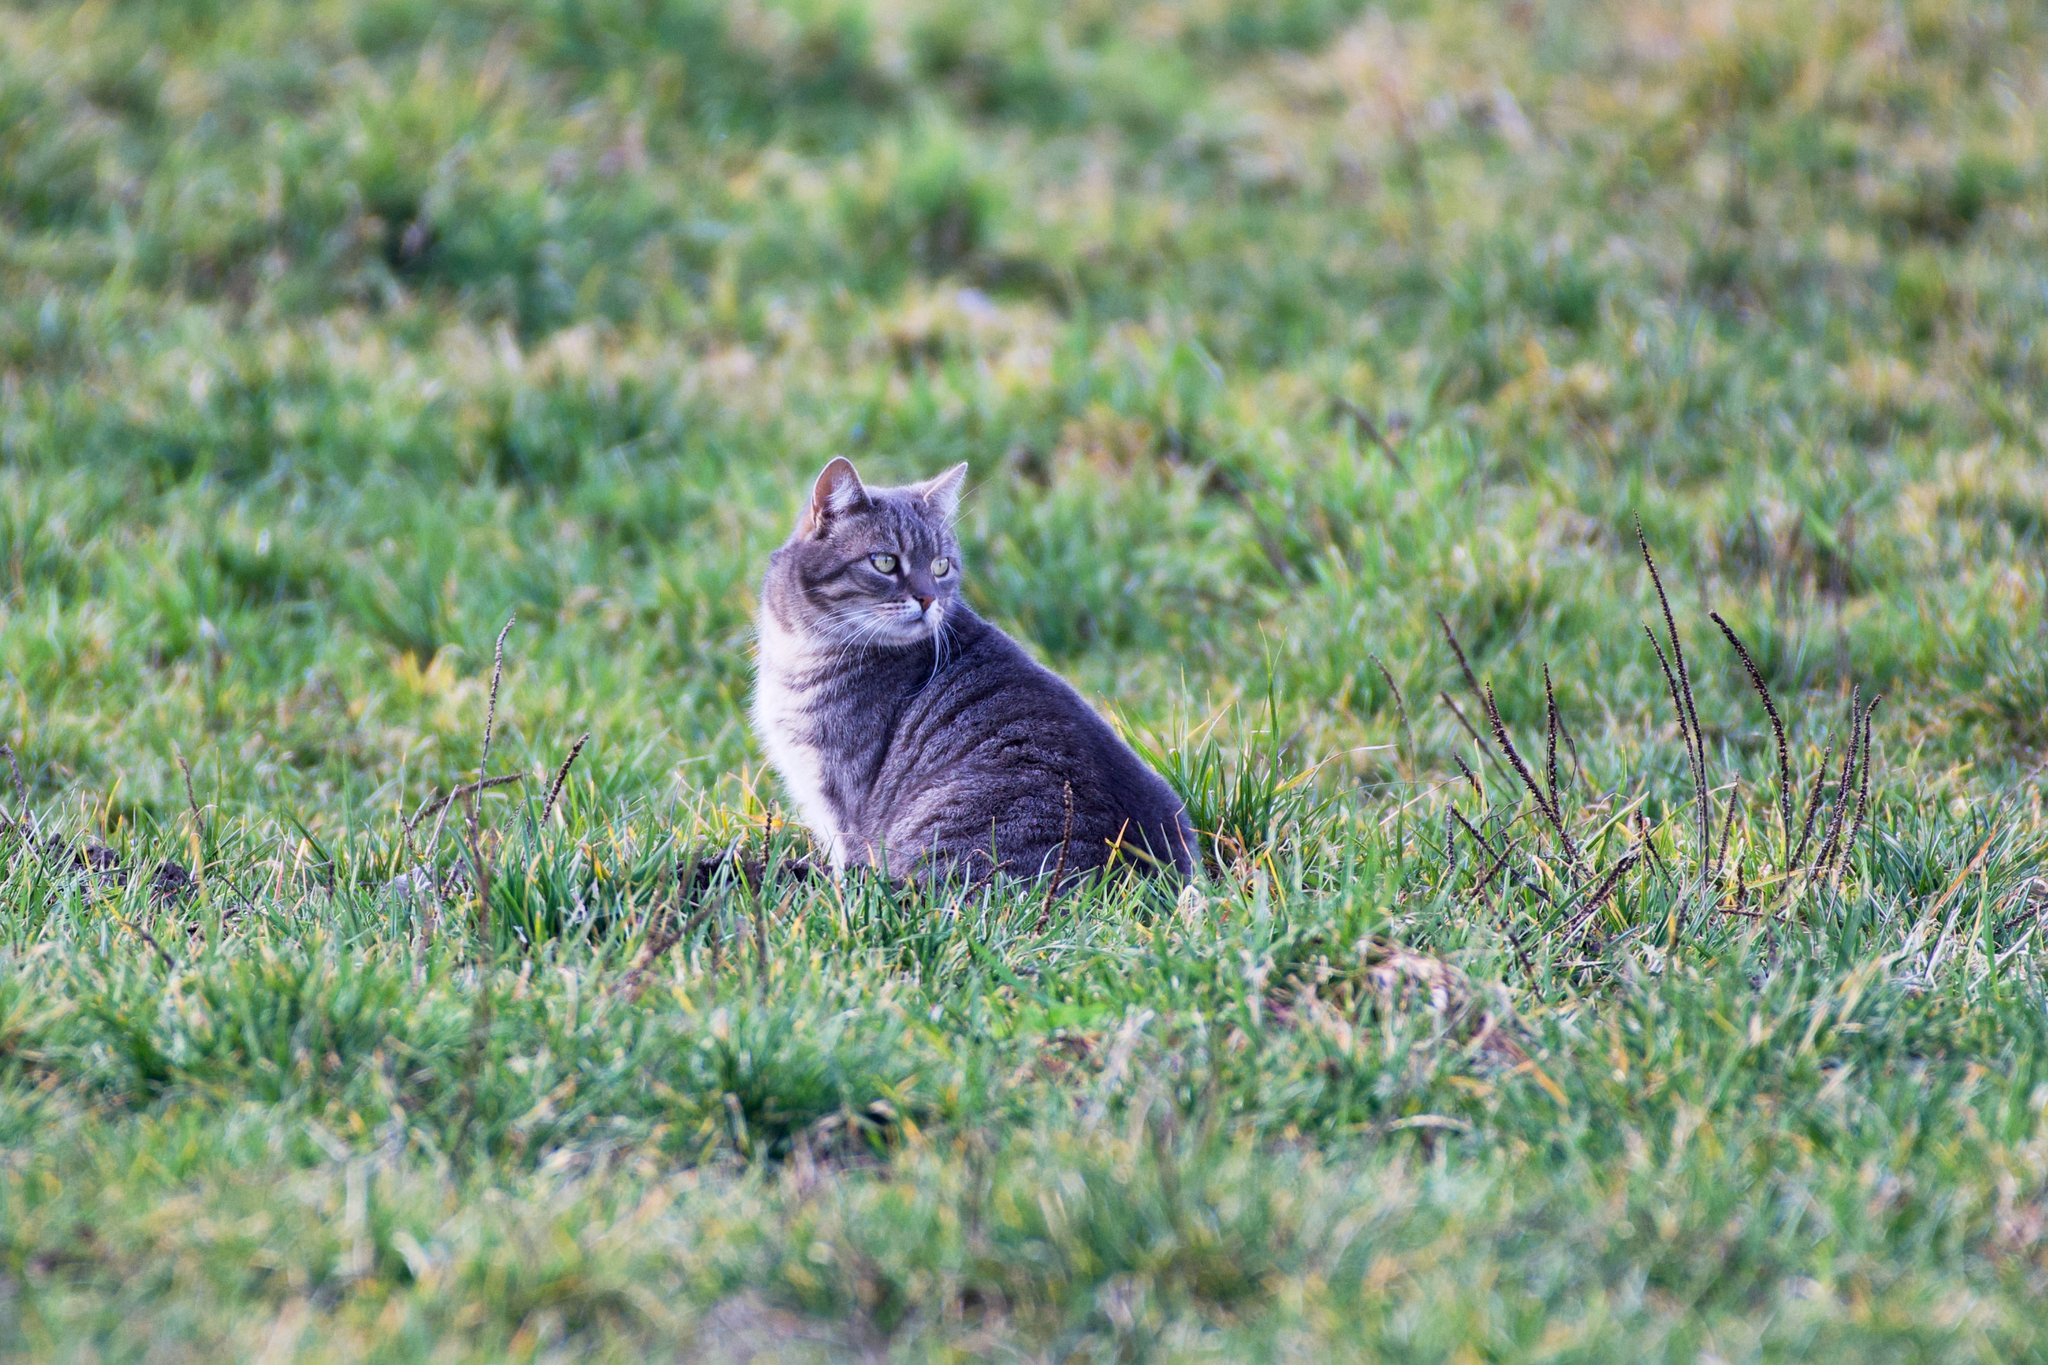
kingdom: Animalia
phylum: Chordata
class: Mammalia
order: Carnivora
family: Felidae
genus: Felis
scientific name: Felis catus
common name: Domestic cat
